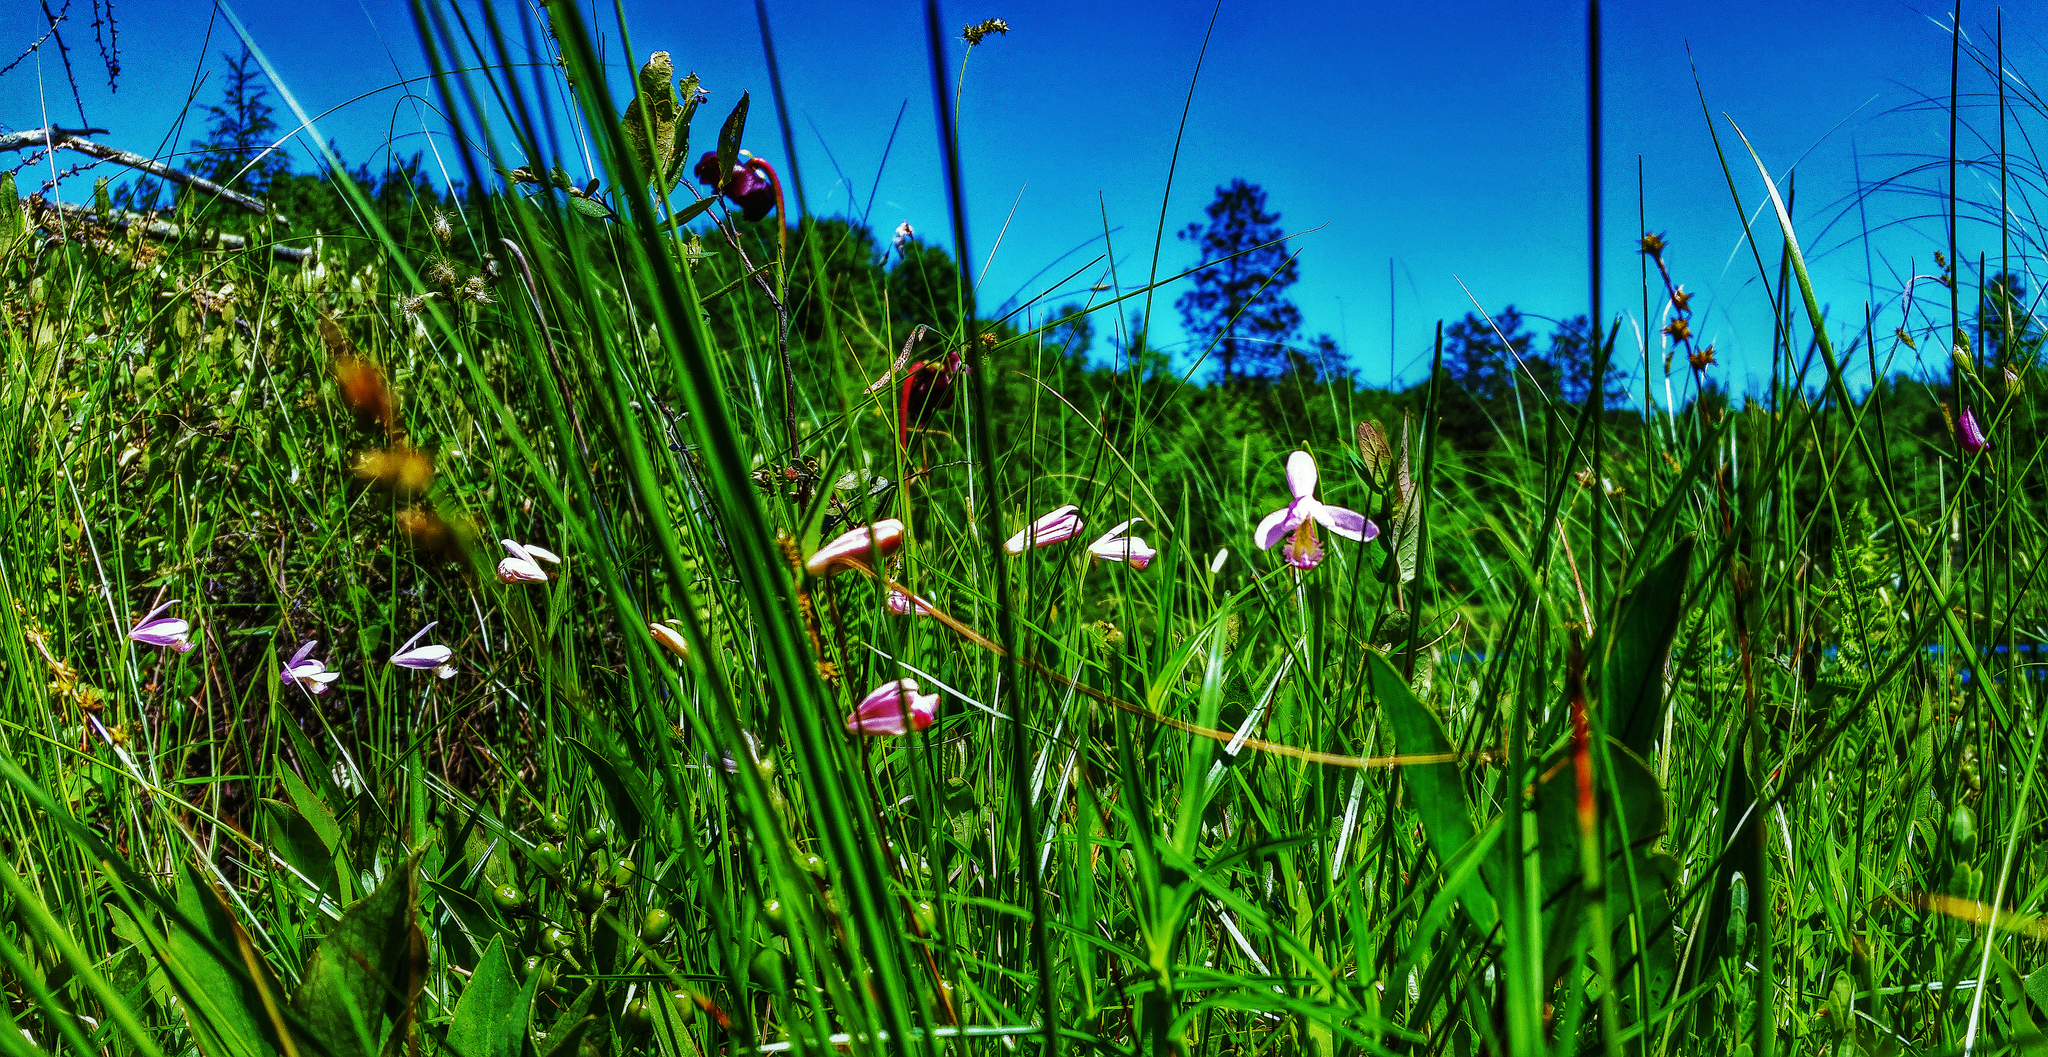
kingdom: Plantae
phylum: Tracheophyta
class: Liliopsida
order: Asparagales
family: Orchidaceae
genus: Pogonia
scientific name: Pogonia ophioglossoides
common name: Rose pogonia
